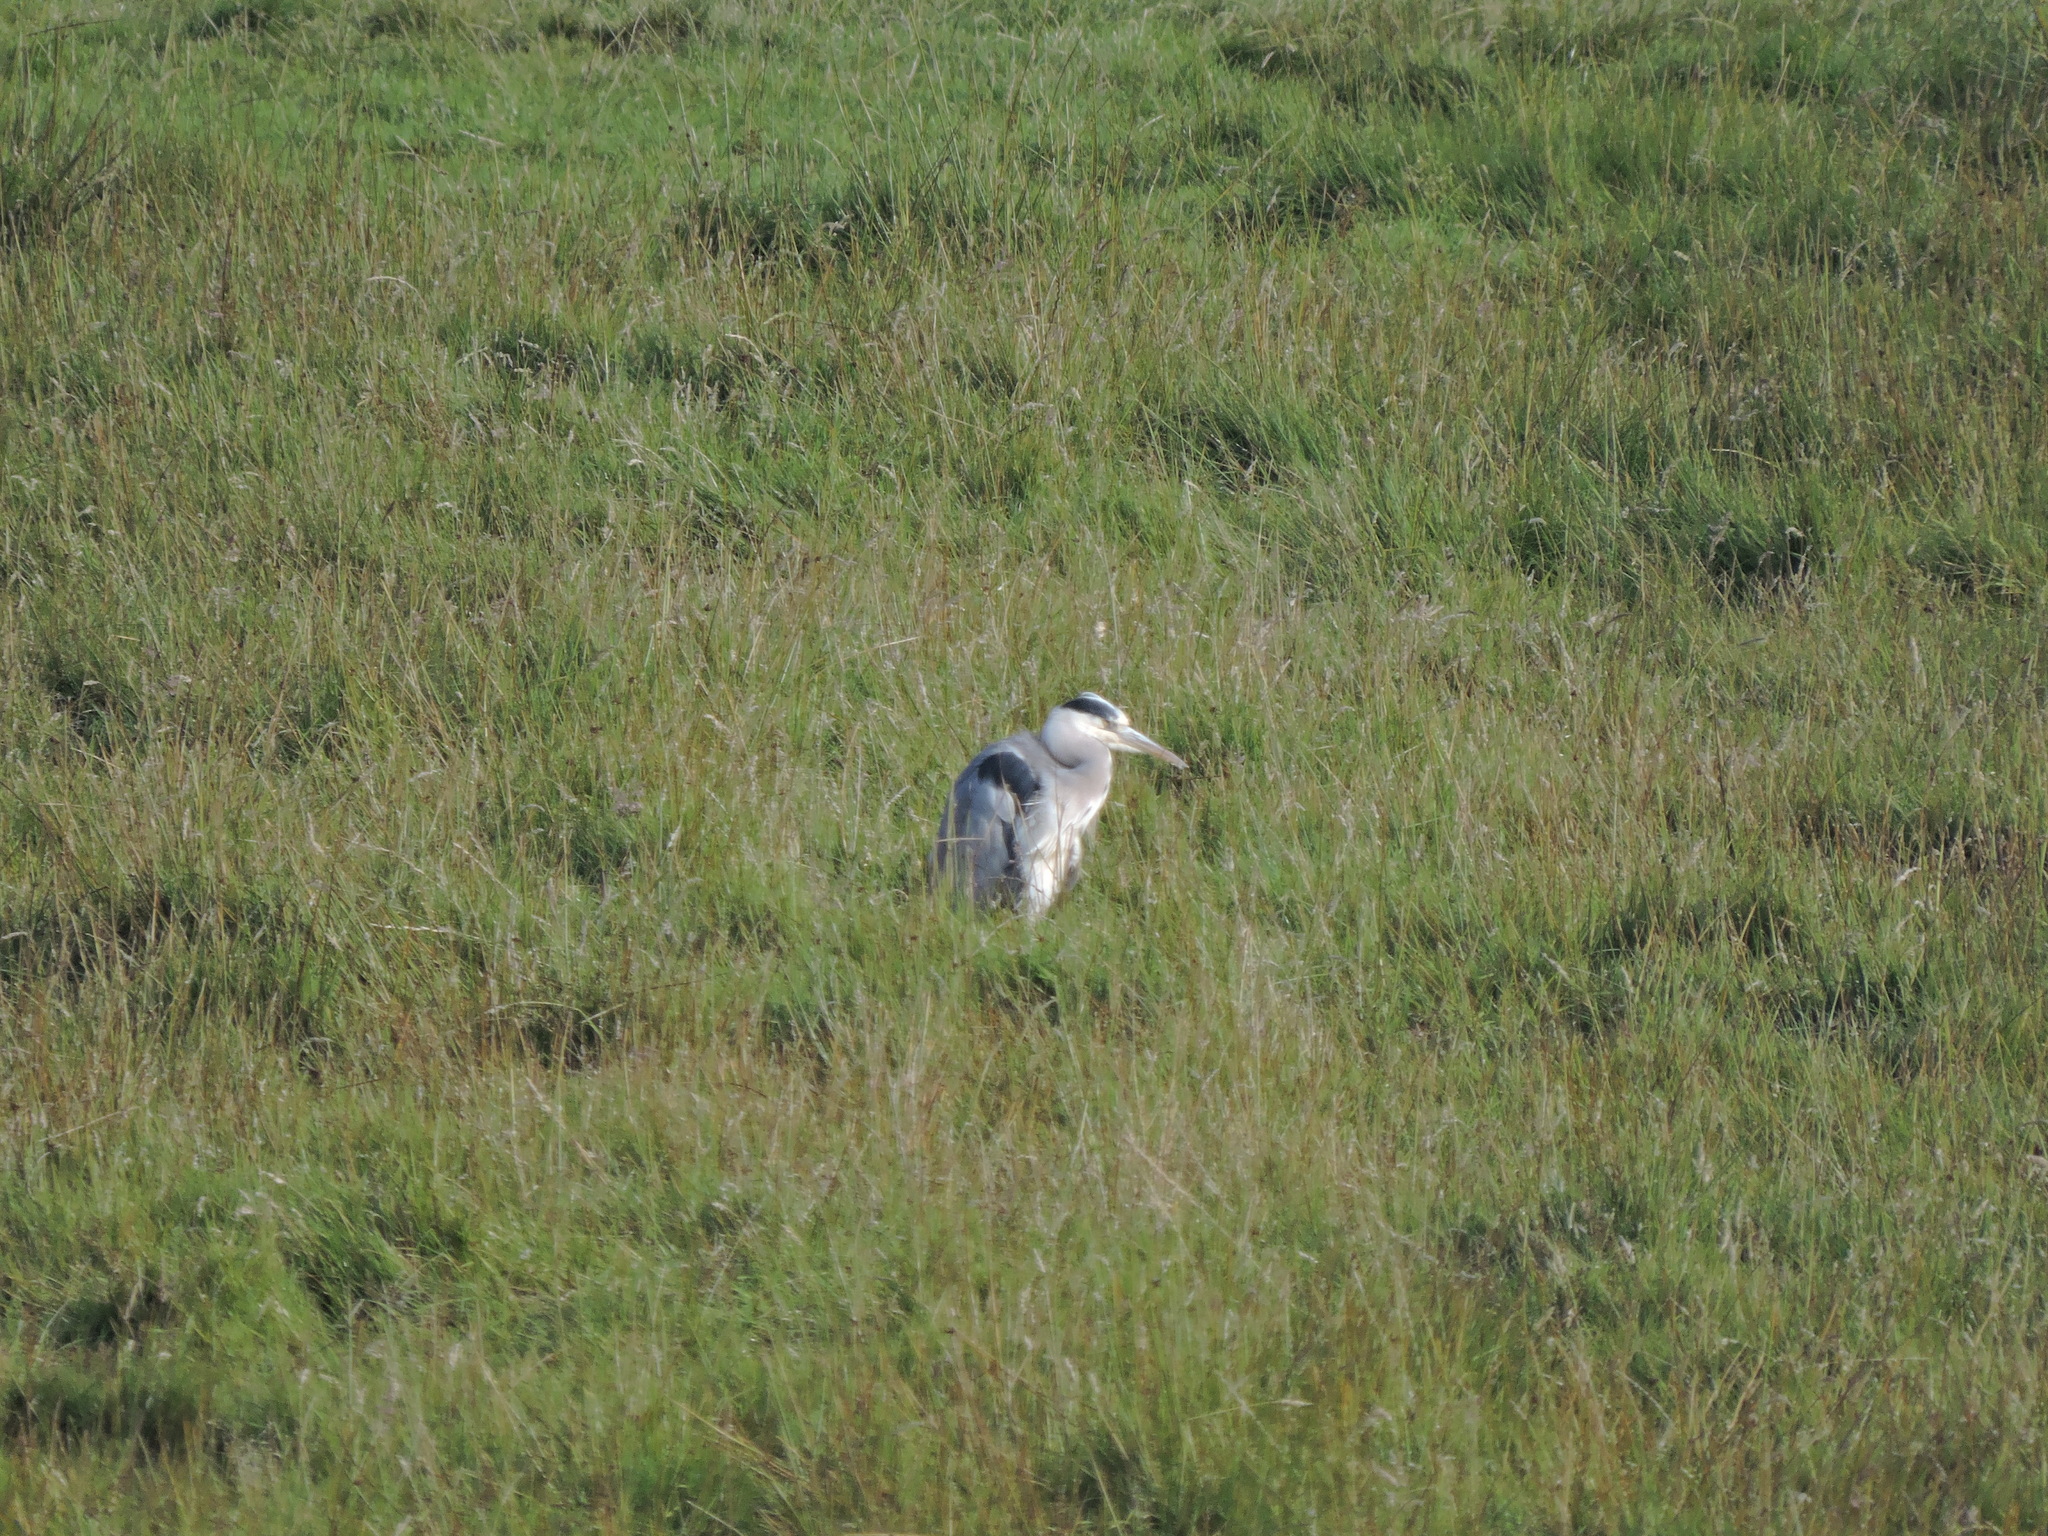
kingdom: Animalia
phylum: Chordata
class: Aves
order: Pelecaniformes
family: Ardeidae
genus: Ardea
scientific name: Ardea cinerea
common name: Grey heron
